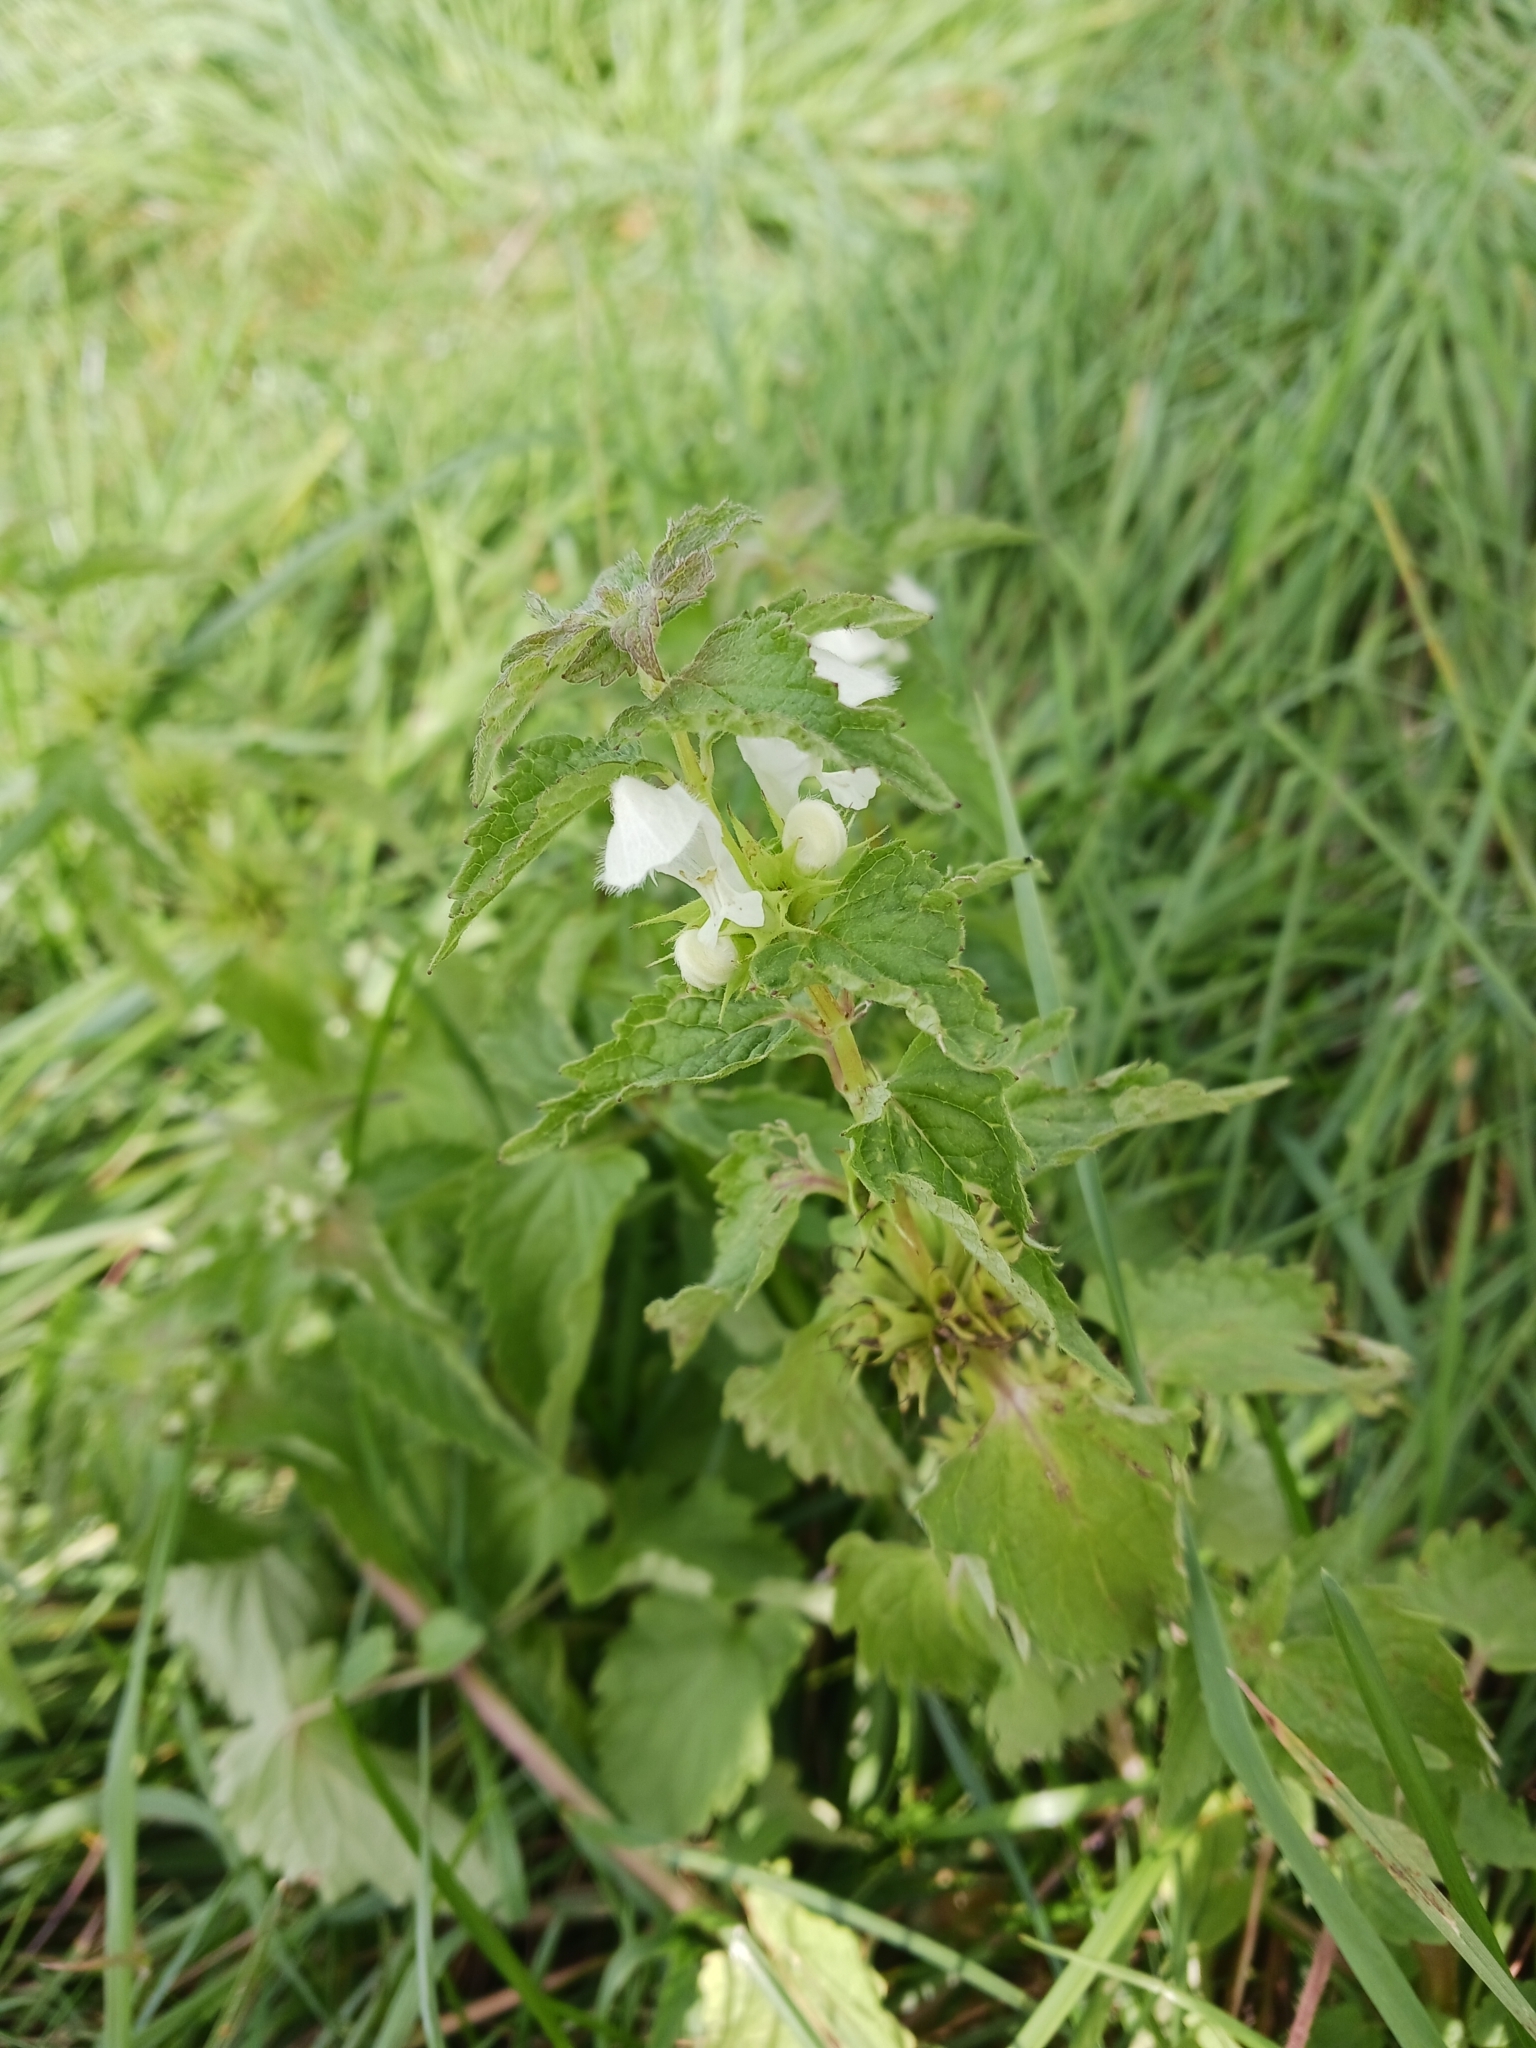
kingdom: Plantae
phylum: Tracheophyta
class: Magnoliopsida
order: Lamiales
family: Lamiaceae
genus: Lamium
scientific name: Lamium album
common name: White dead-nettle
